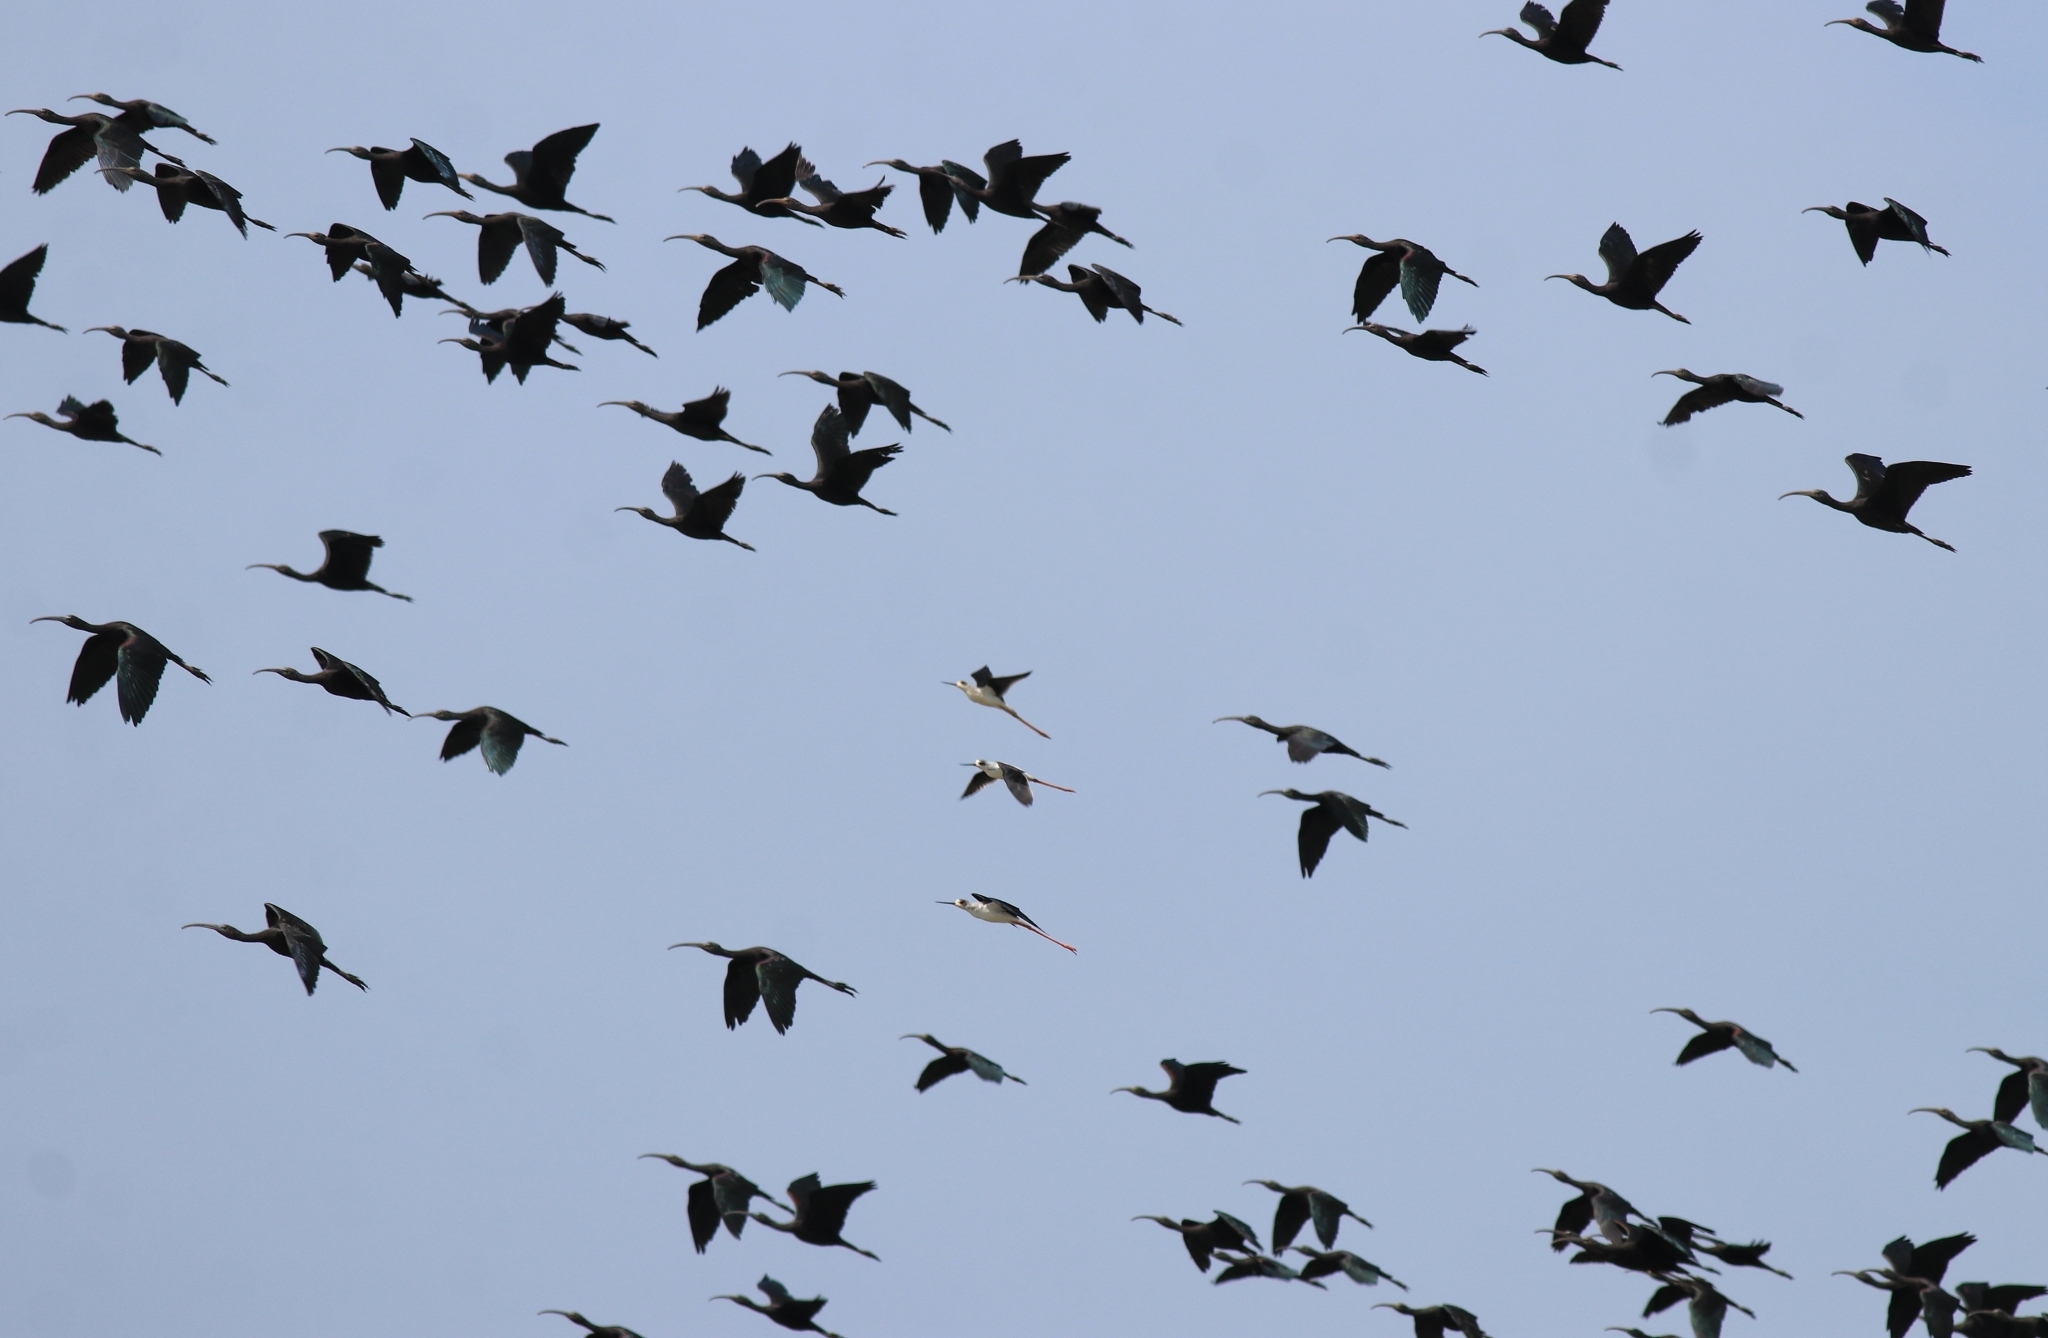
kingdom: Animalia
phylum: Chordata
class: Aves
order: Charadriiformes
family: Recurvirostridae
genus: Himantopus
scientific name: Himantopus himantopus
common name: Black-winged stilt
